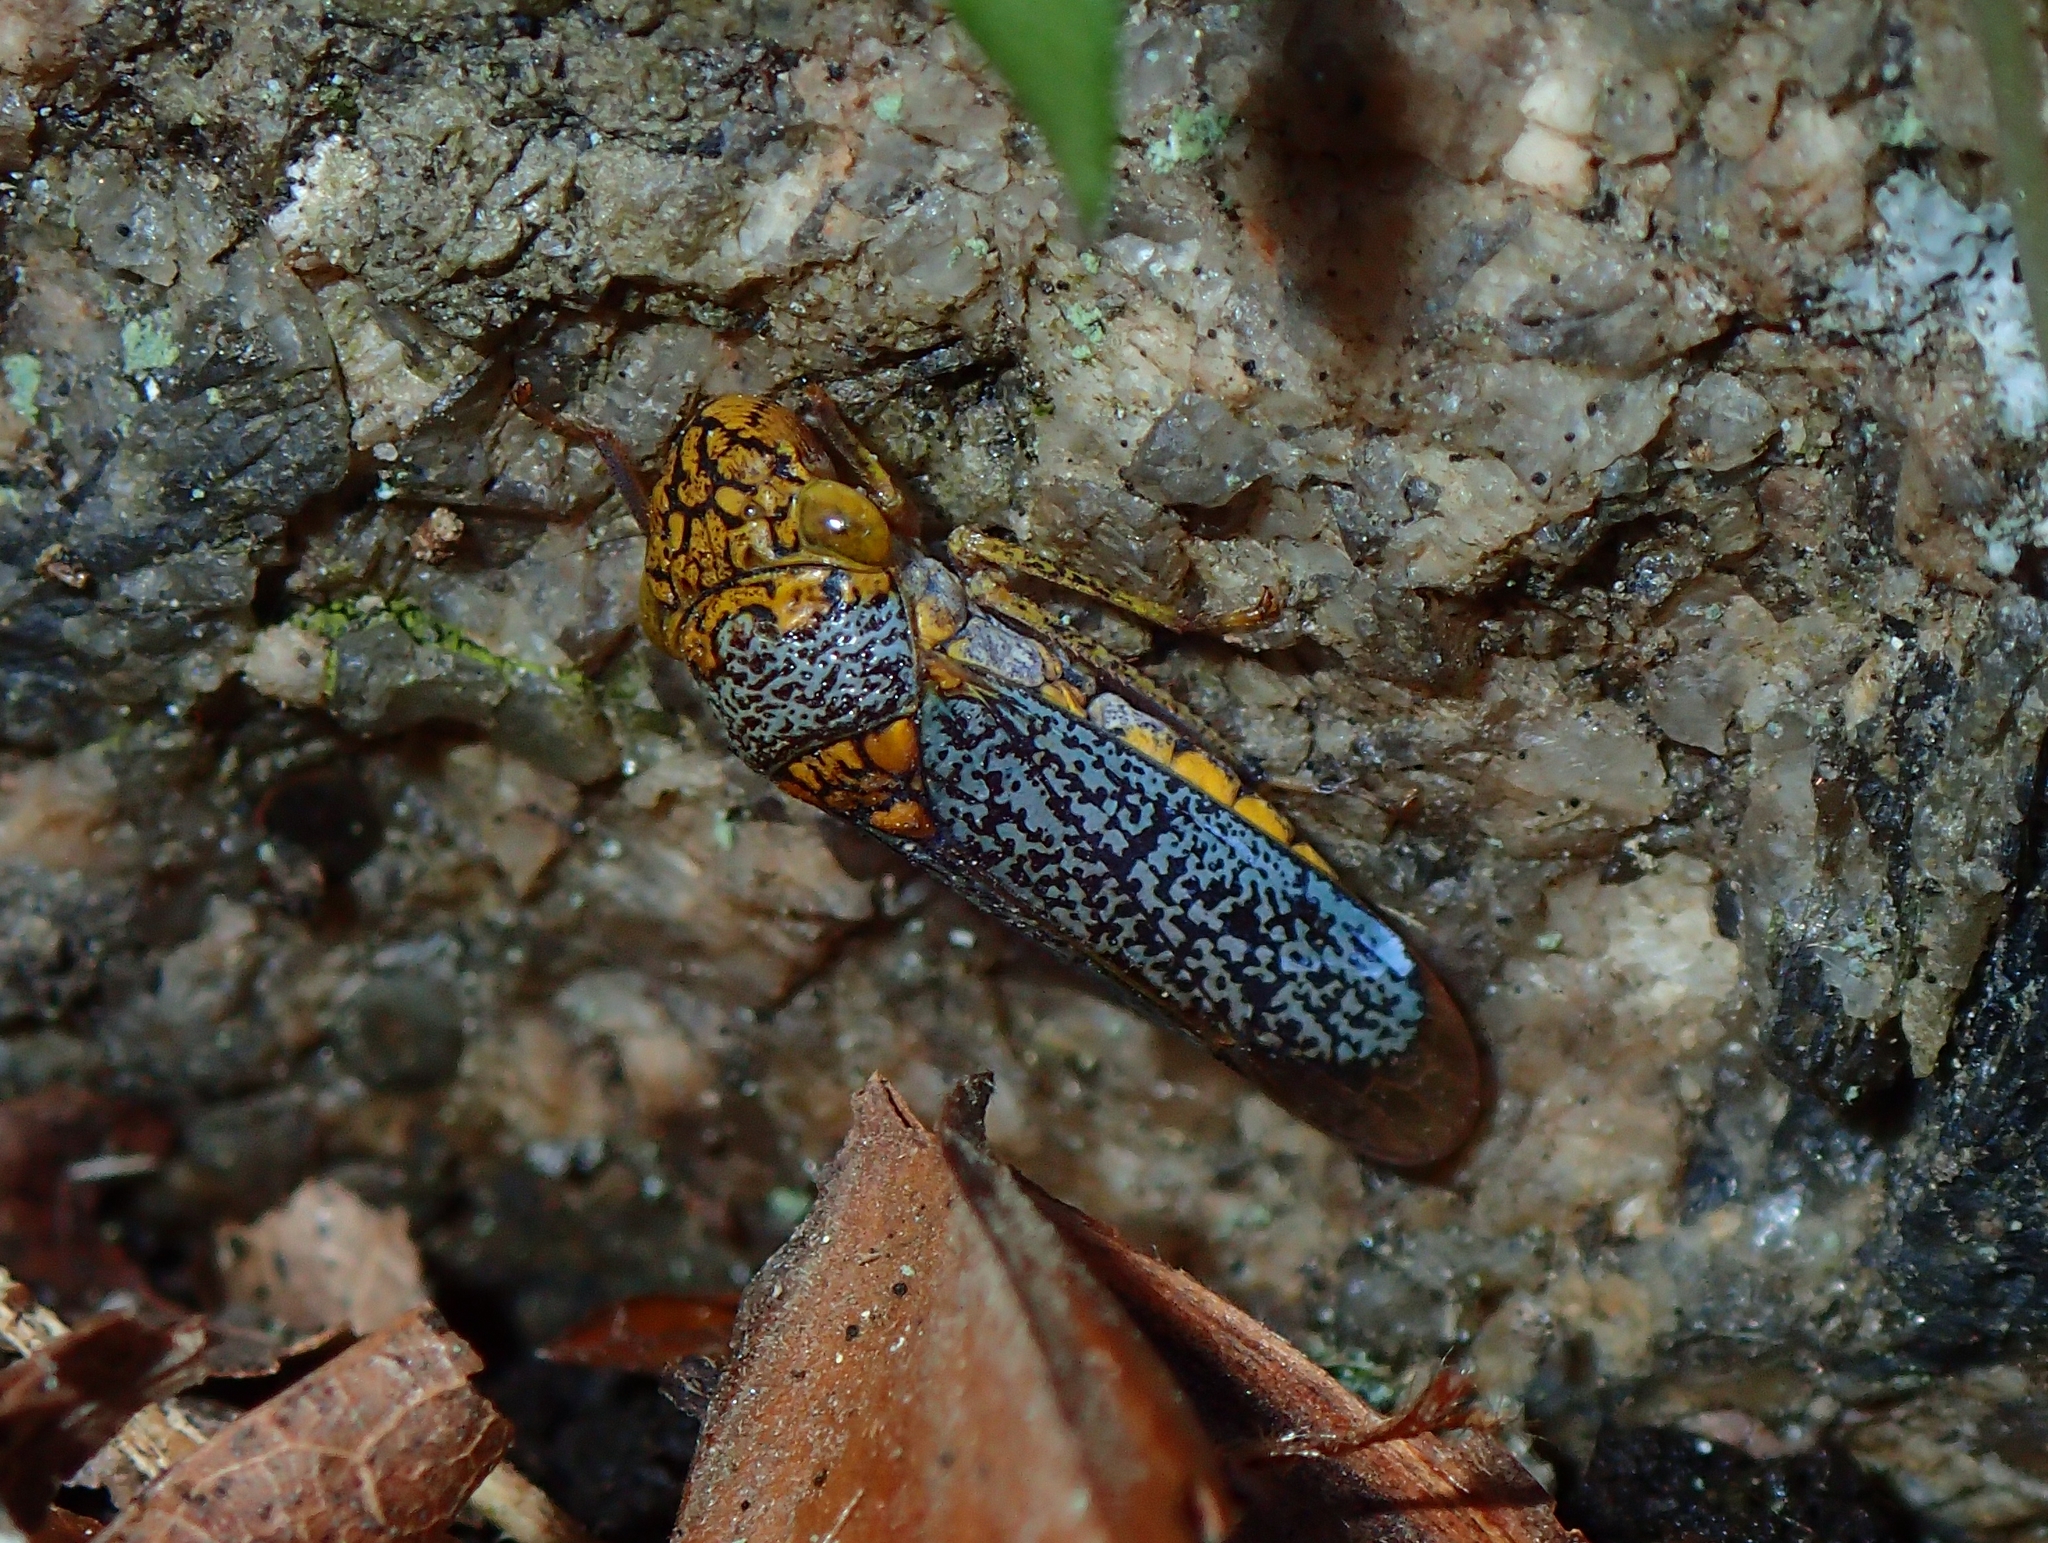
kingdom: Animalia
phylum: Arthropoda
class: Insecta
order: Hemiptera
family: Cicadellidae
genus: Oncometopia
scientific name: Oncometopia orbona
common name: Broad-headed sharpshooter
